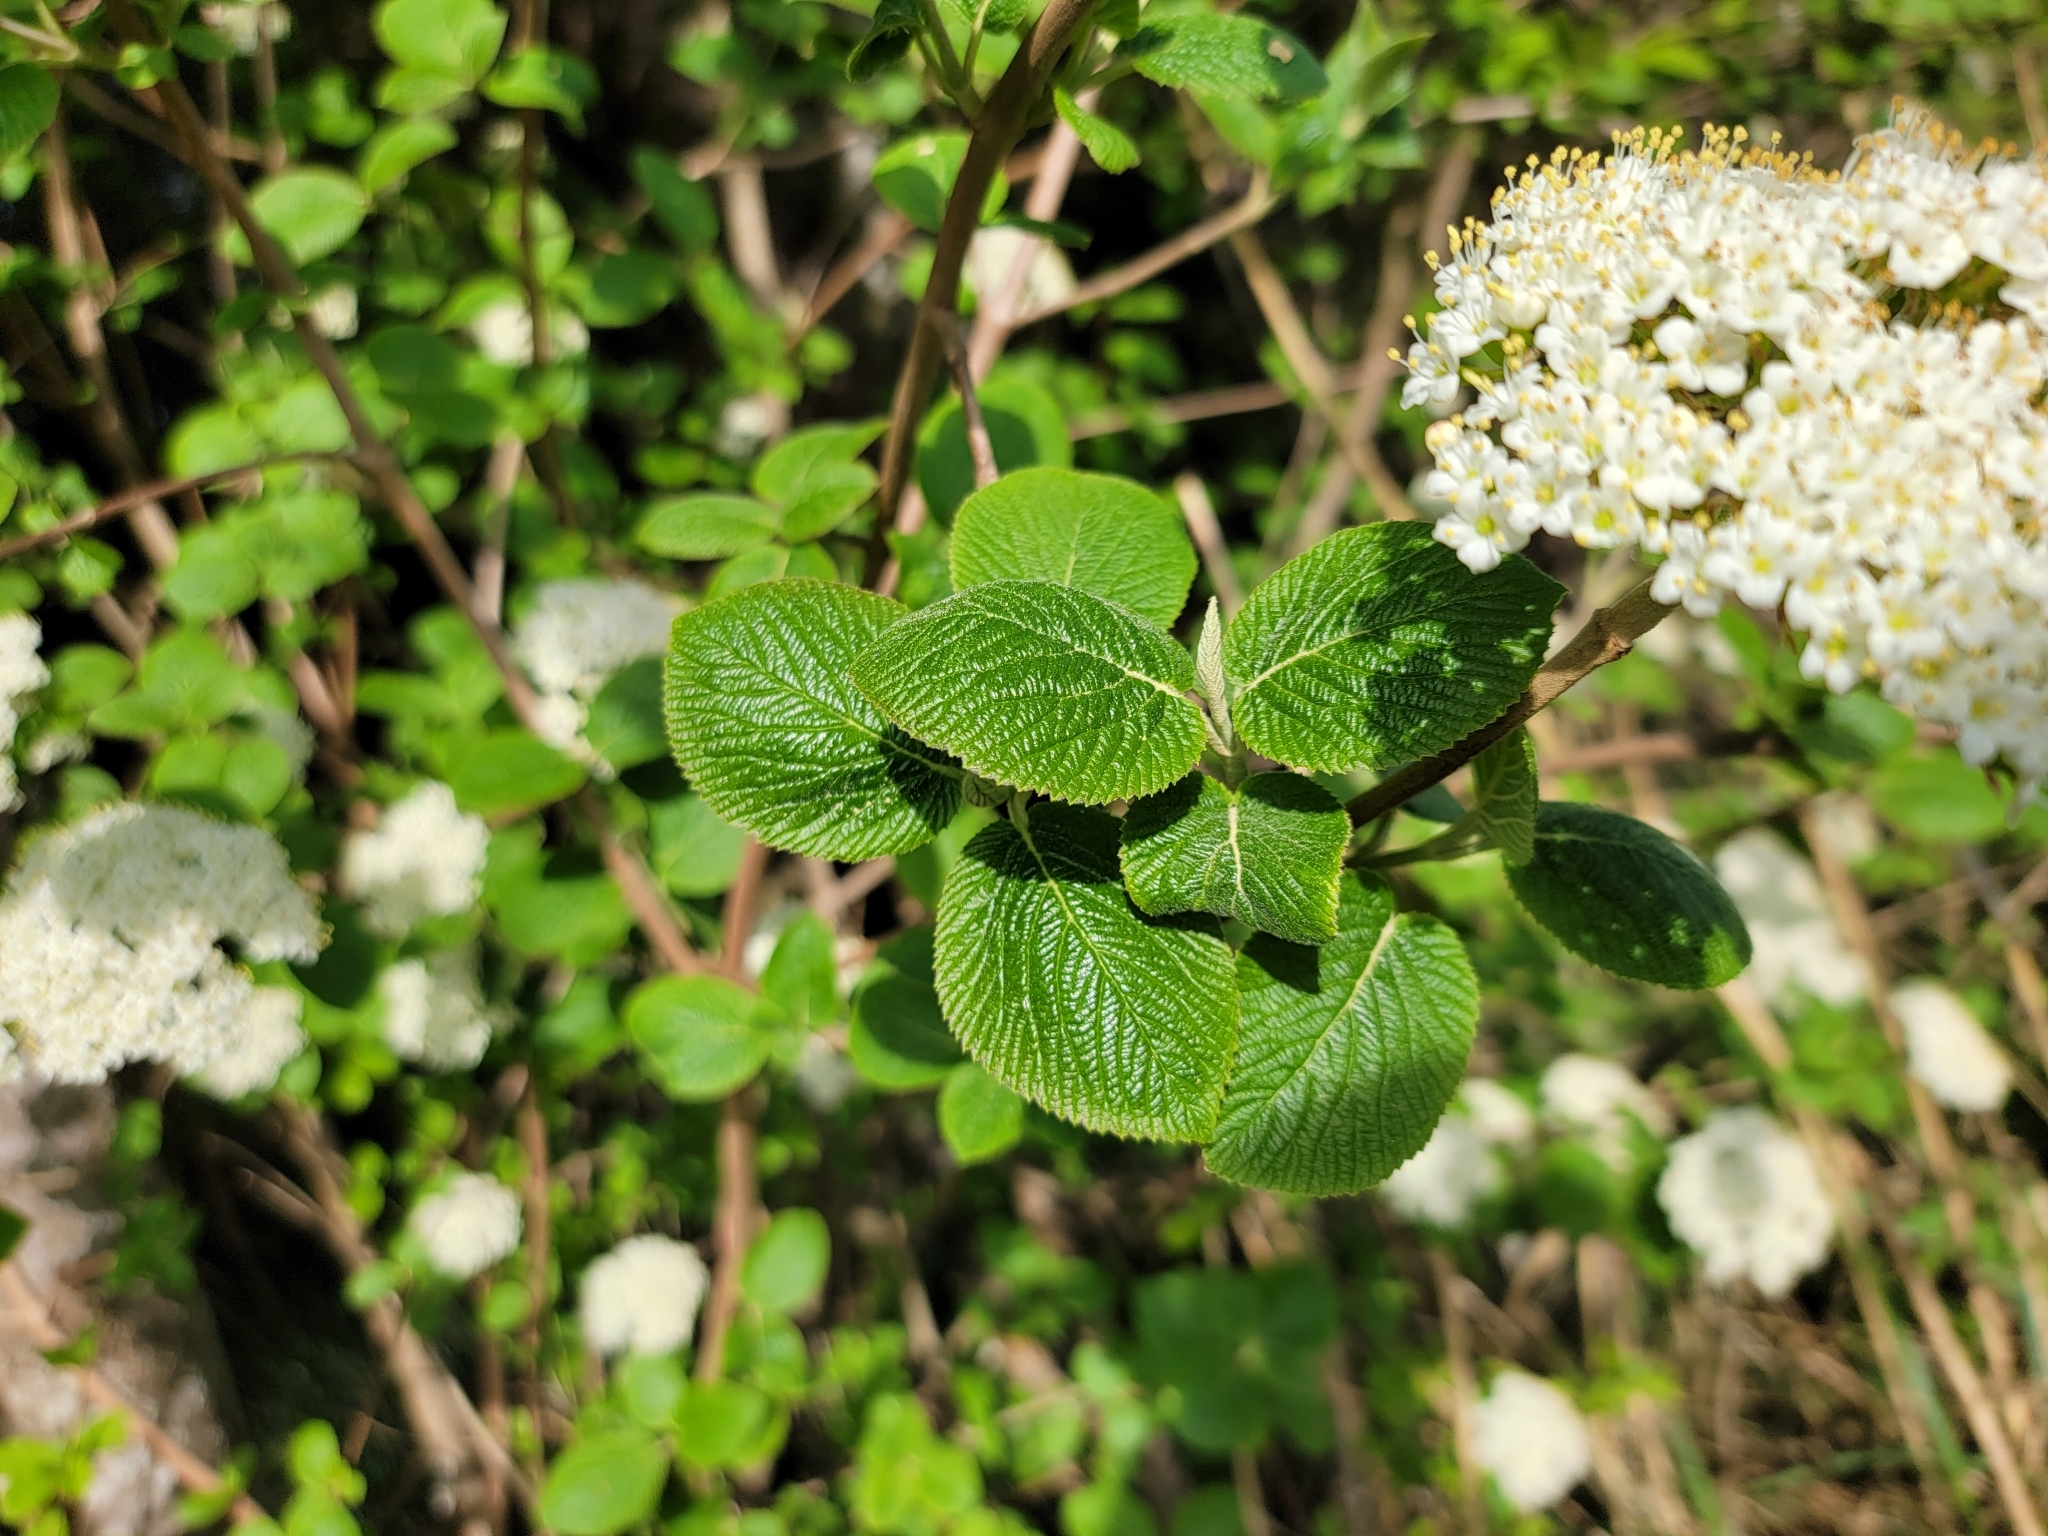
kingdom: Plantae
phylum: Tracheophyta
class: Magnoliopsida
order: Dipsacales
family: Viburnaceae
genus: Viburnum
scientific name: Viburnum lantana
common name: Wayfaring tree
